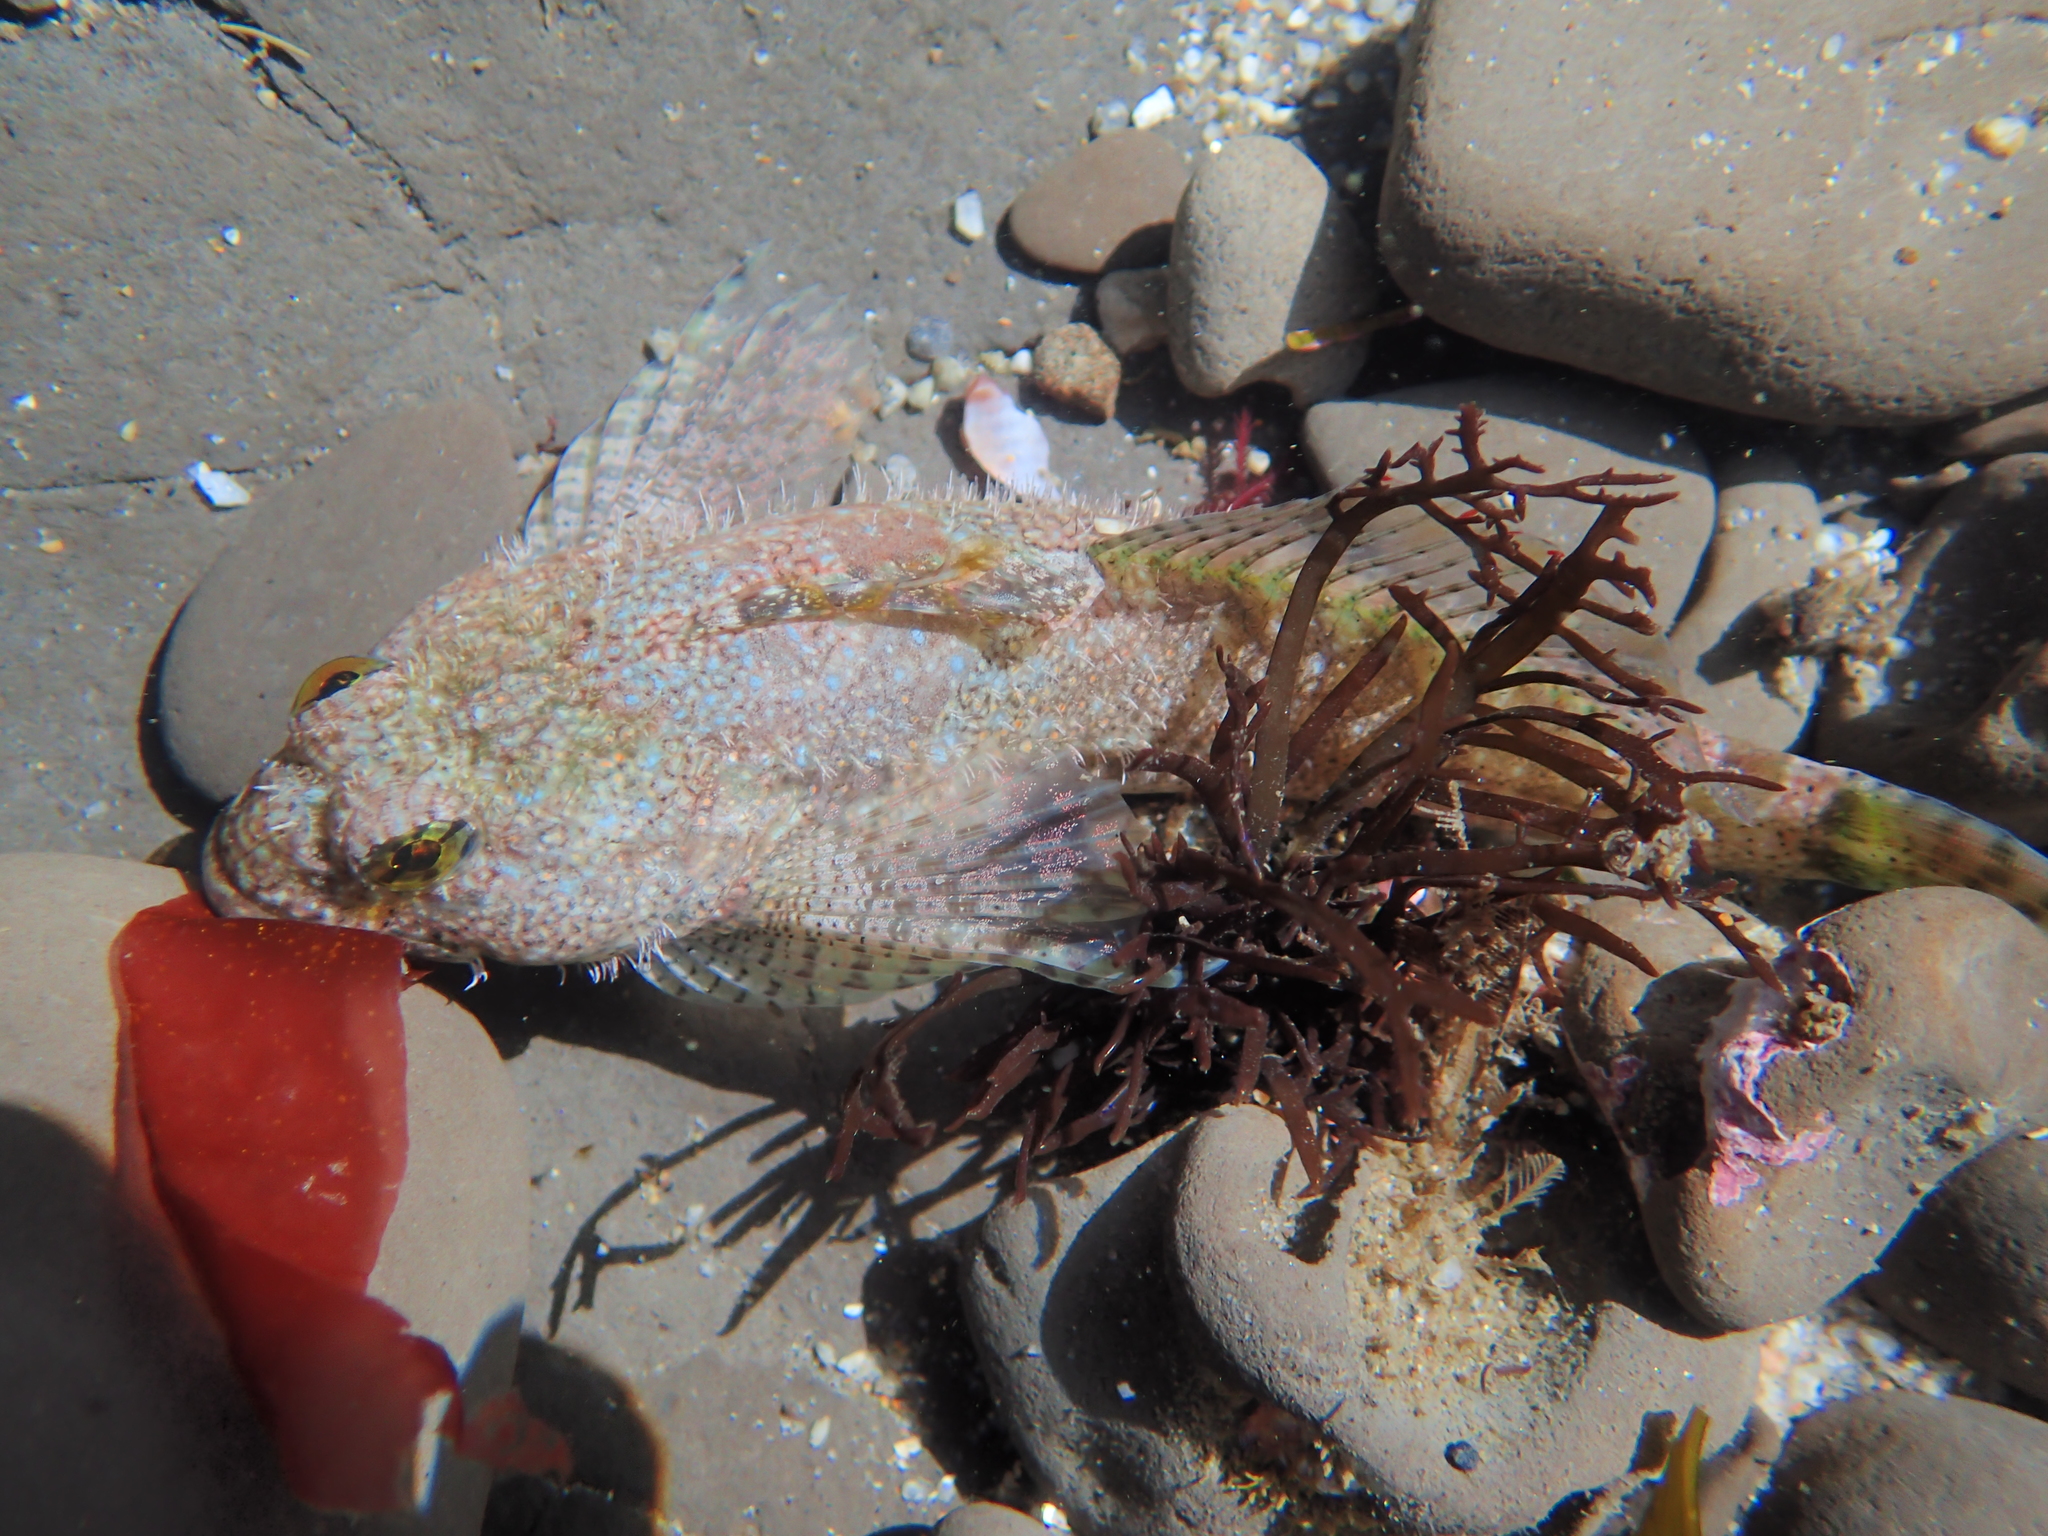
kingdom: Animalia
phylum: Chordata
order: Scorpaeniformes
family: Cottidae
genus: Clinocottus
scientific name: Clinocottus analis
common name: Woolly sculpin
